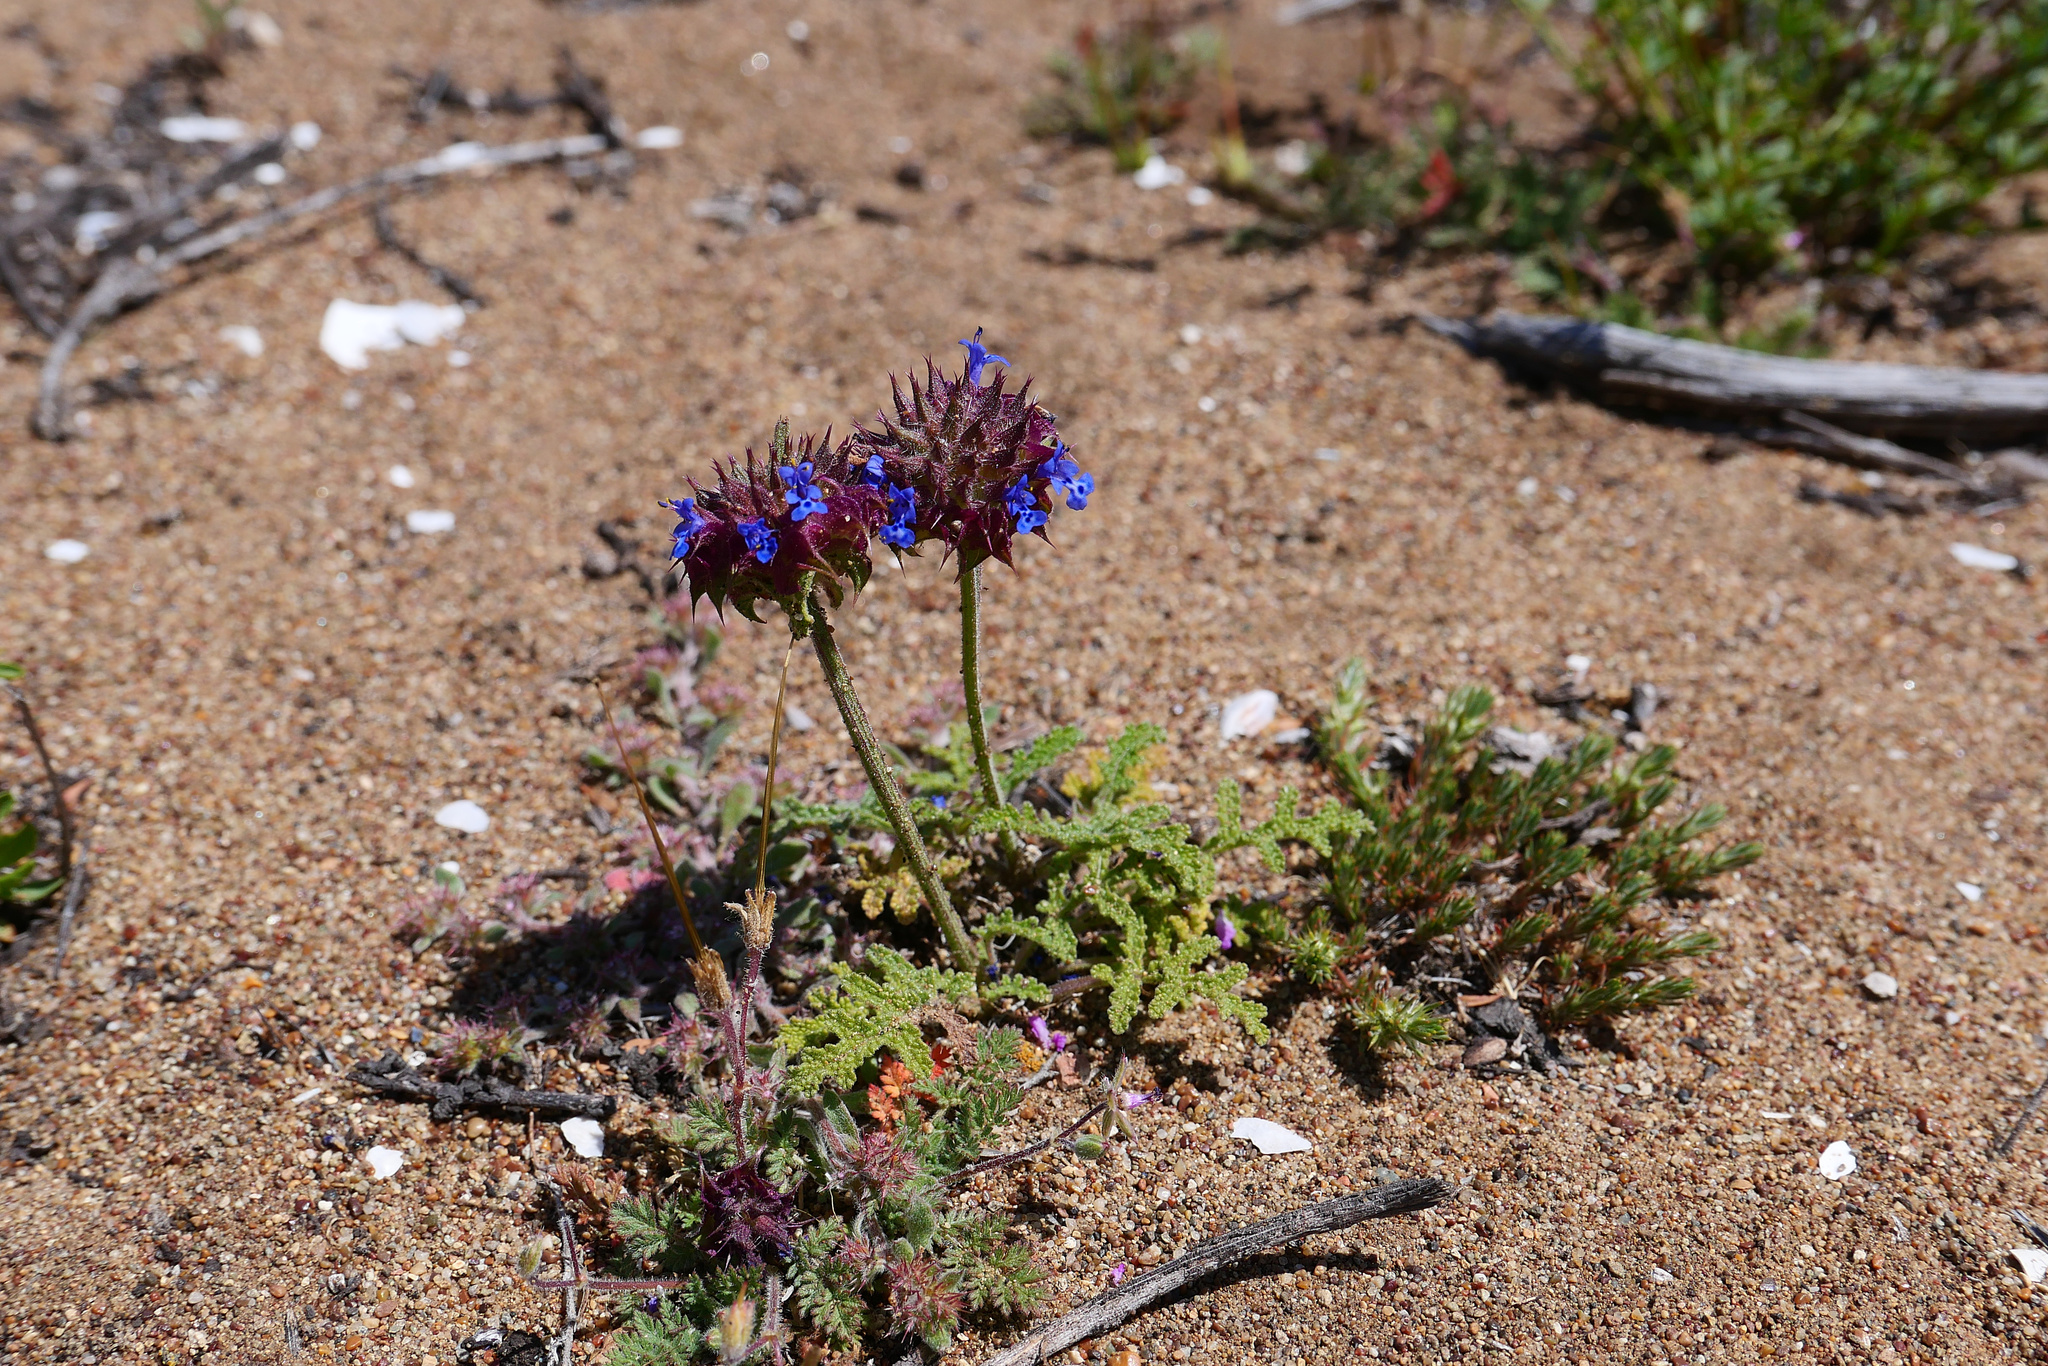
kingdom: Plantae
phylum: Tracheophyta
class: Magnoliopsida
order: Lamiales
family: Lamiaceae
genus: Salvia
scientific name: Salvia columbariae
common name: Chia
